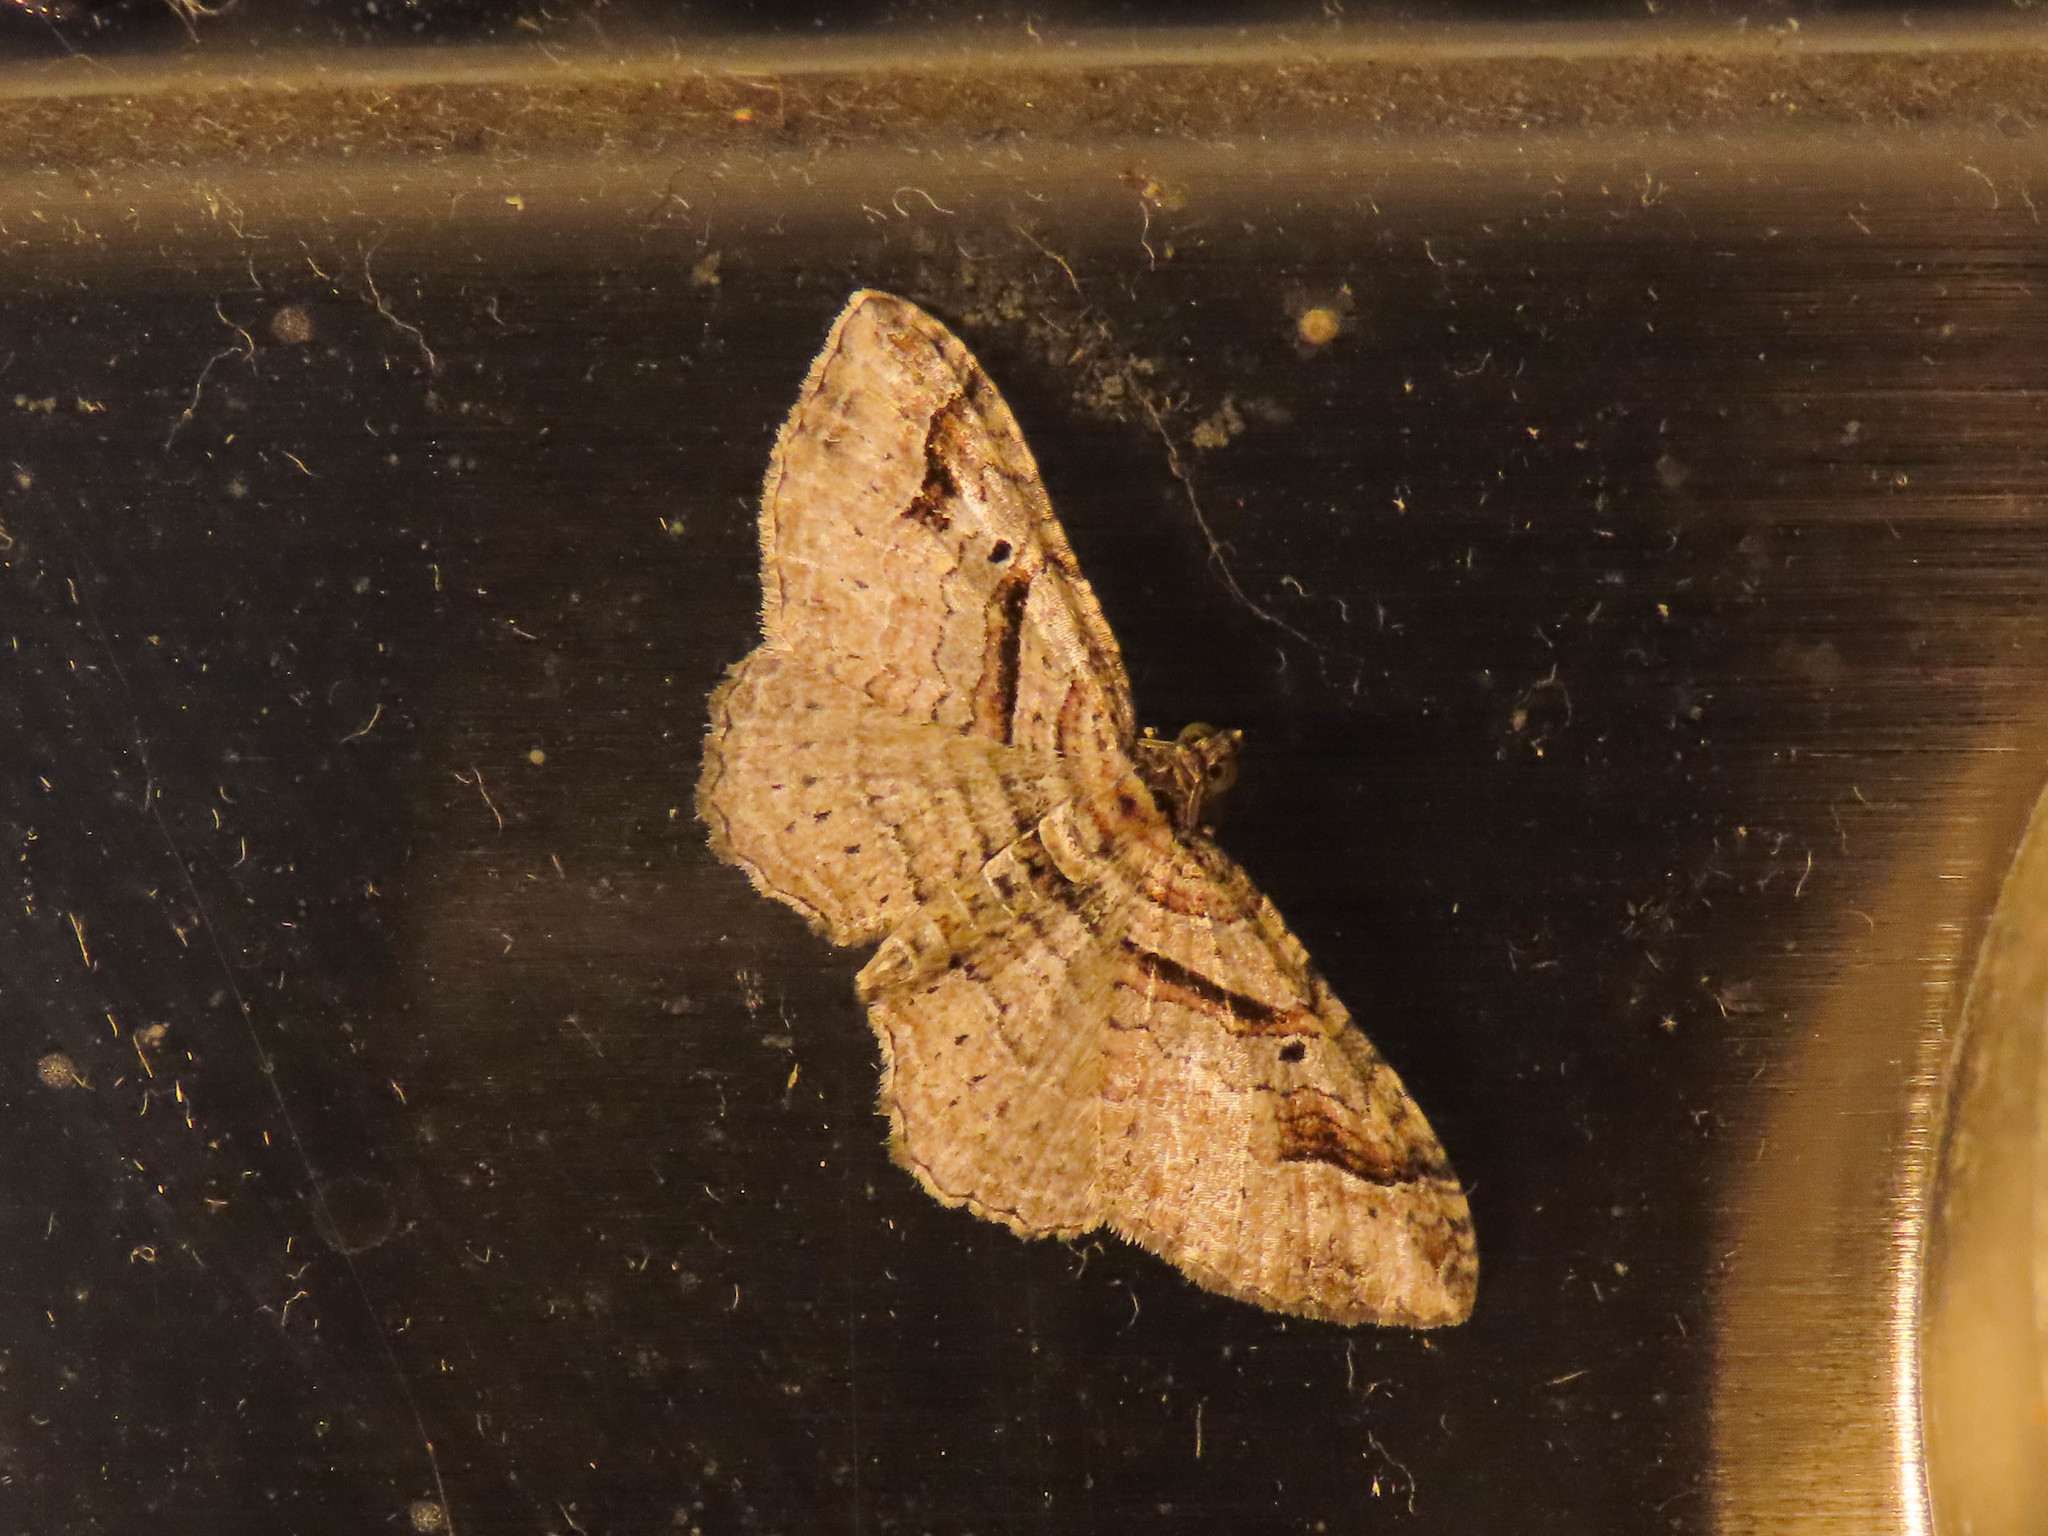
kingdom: Animalia
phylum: Arthropoda
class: Insecta
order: Lepidoptera
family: Geometridae
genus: Costaconvexa
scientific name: Costaconvexa centrostrigaria
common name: Bent-line carpet
